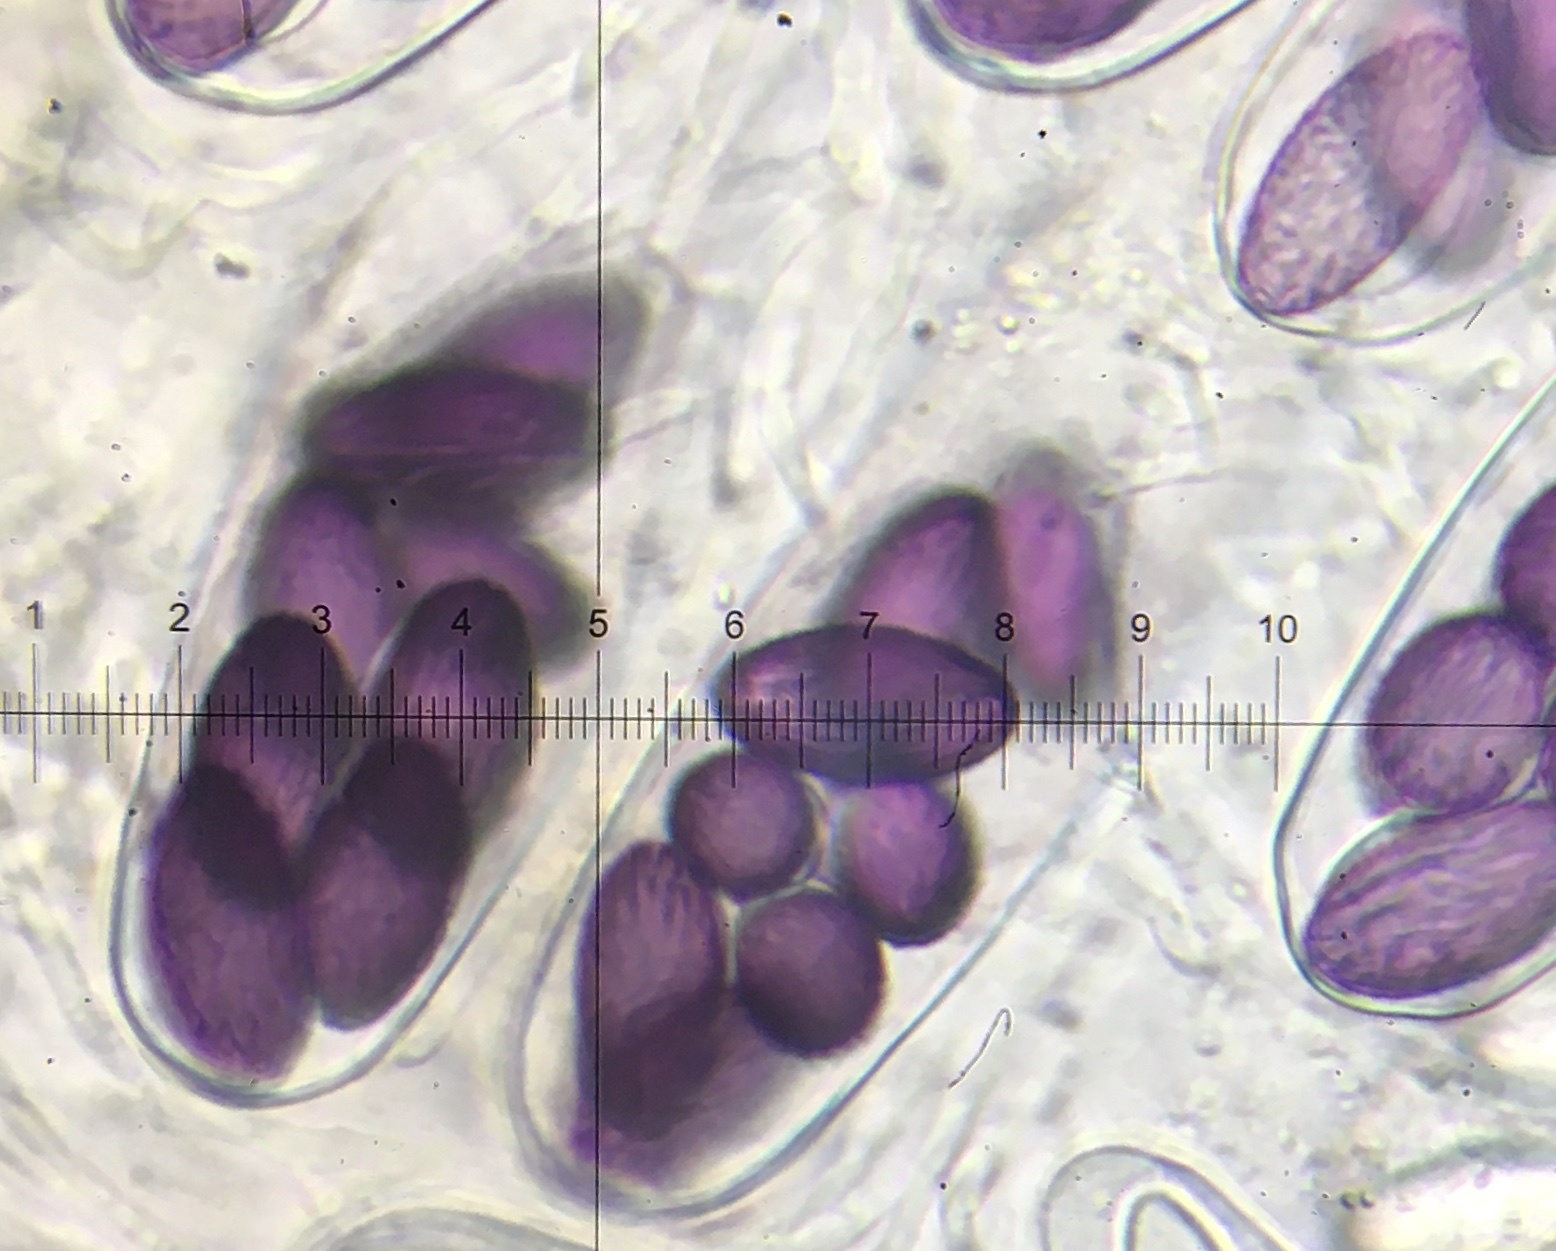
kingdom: Fungi
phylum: Ascomycota
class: Pezizomycetes
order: Pezizales
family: Ascobolaceae
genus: Ascobolus
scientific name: Ascobolus albidus
